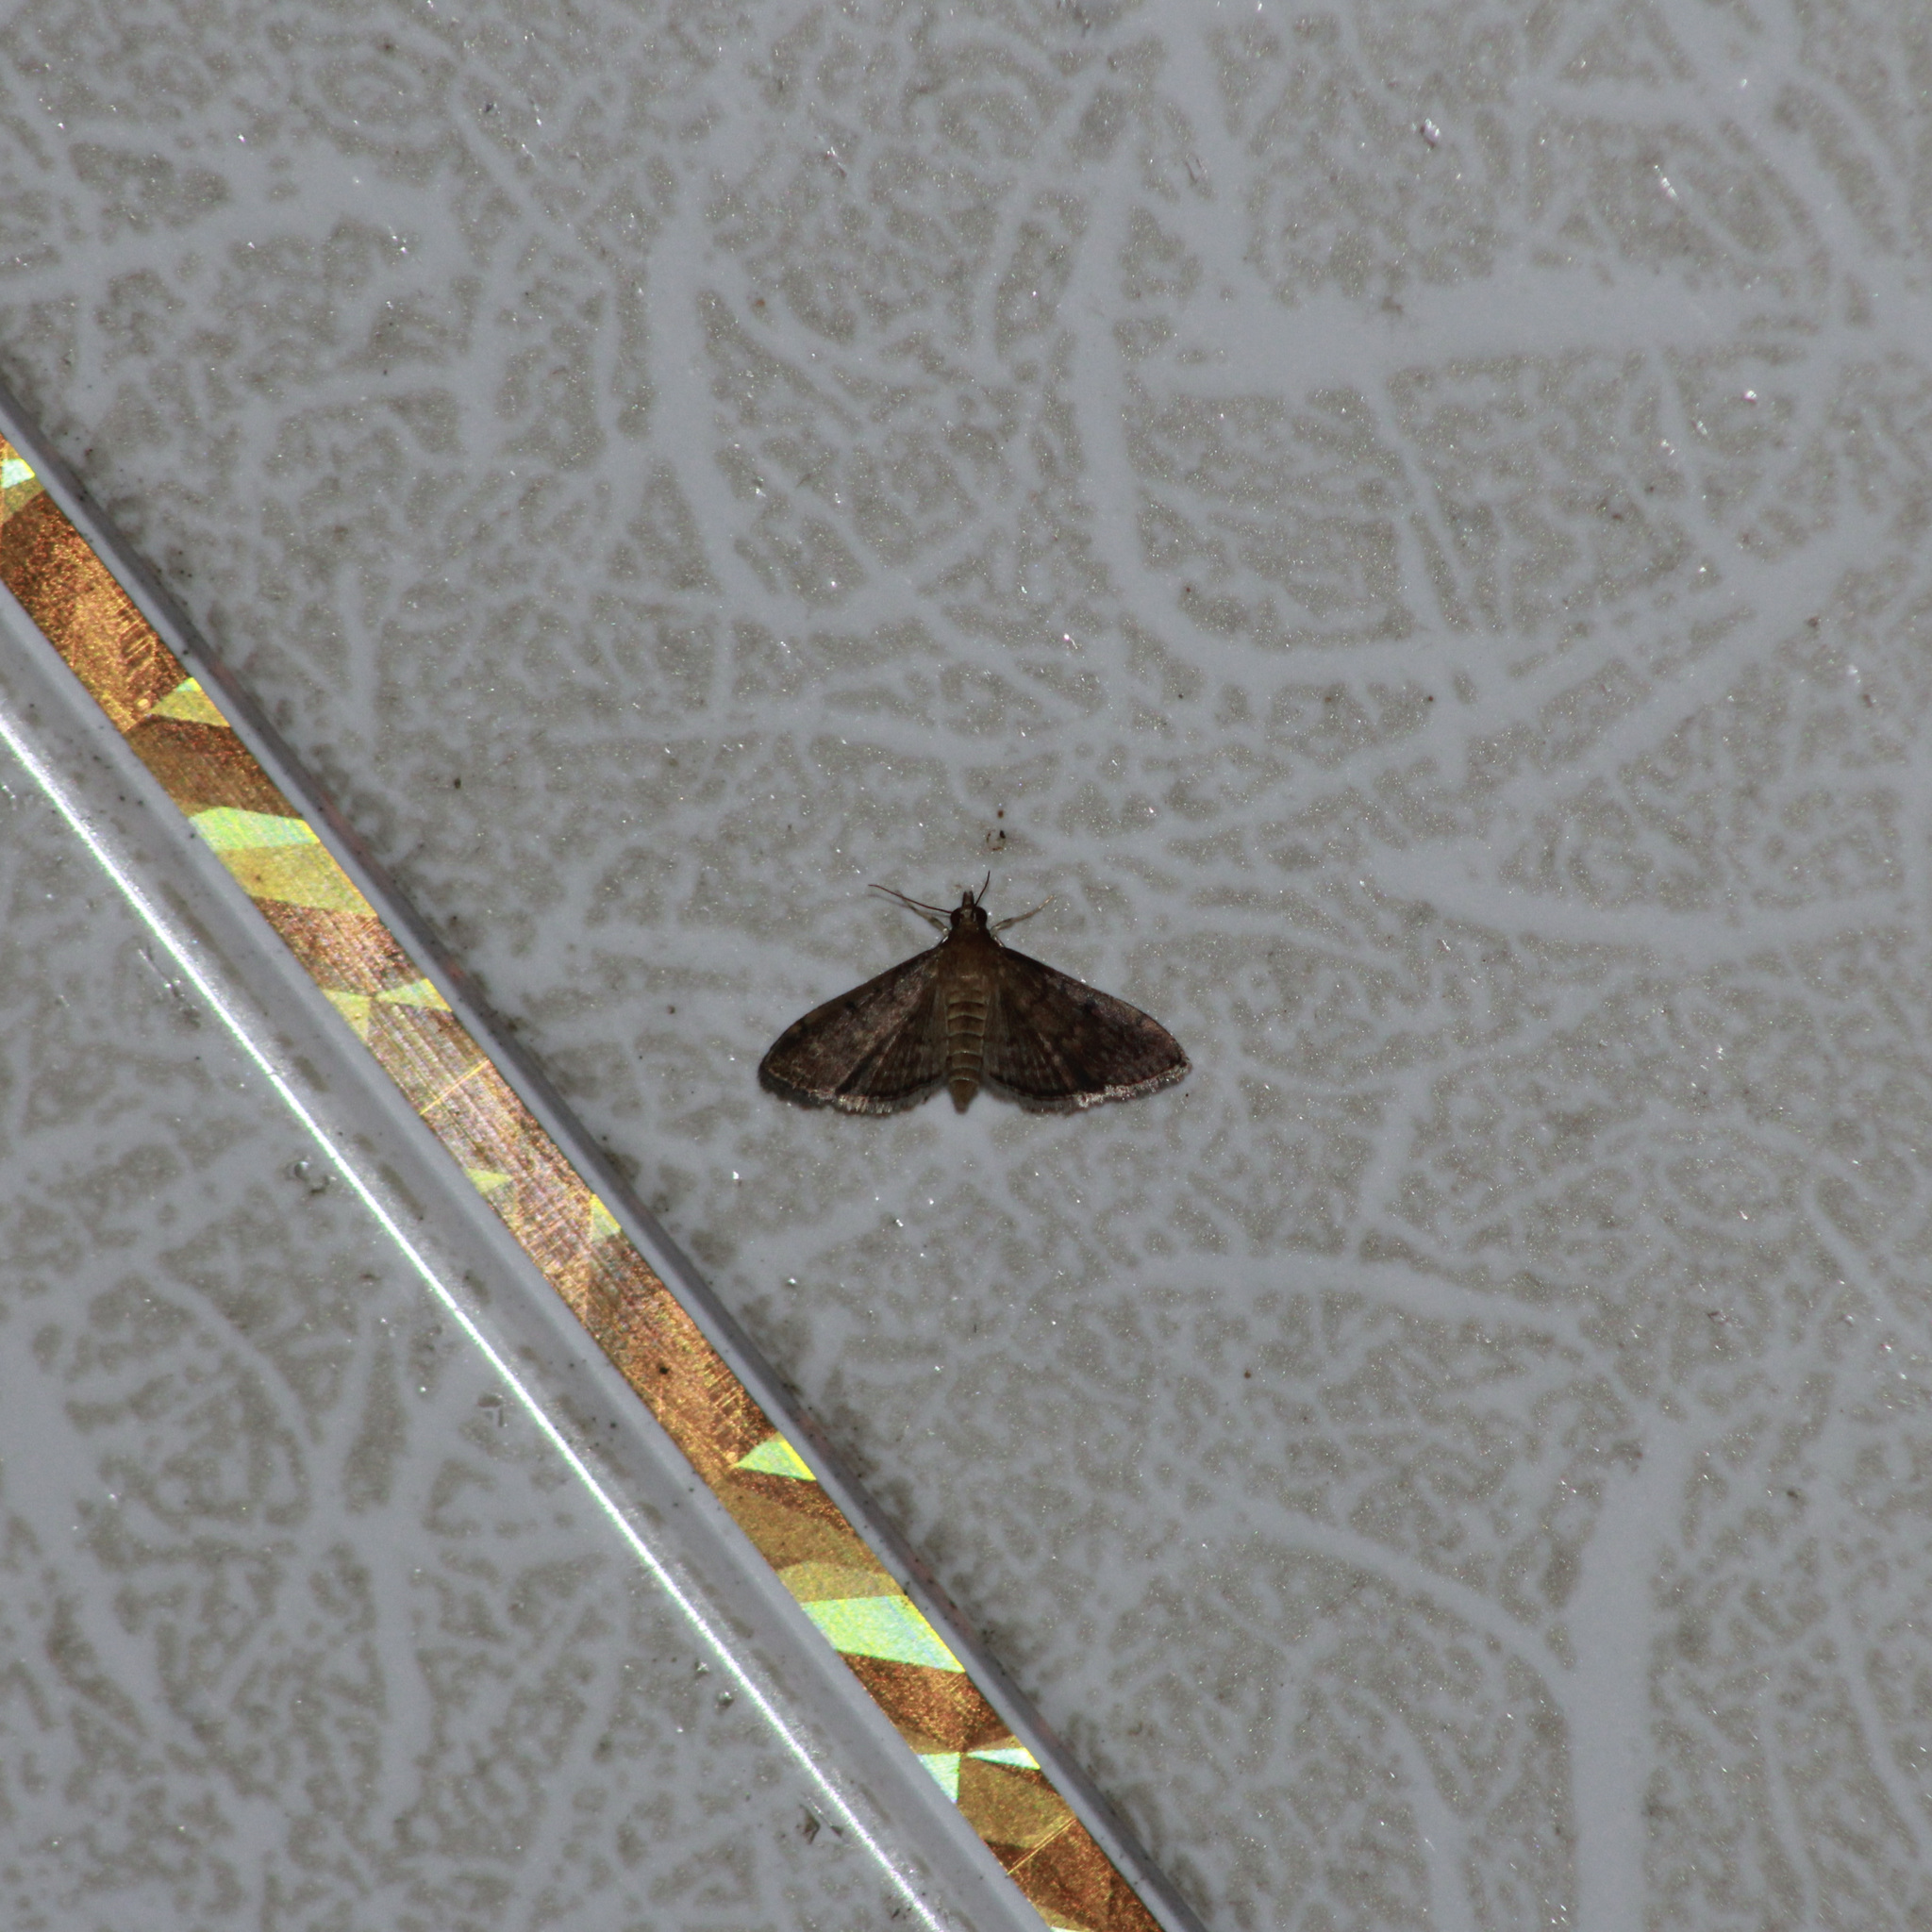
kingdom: Animalia
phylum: Arthropoda
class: Insecta
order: Lepidoptera
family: Crambidae
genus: Herpetogramma
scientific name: Herpetogramma phaeopteralis
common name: Dusky herpetogramma moth
